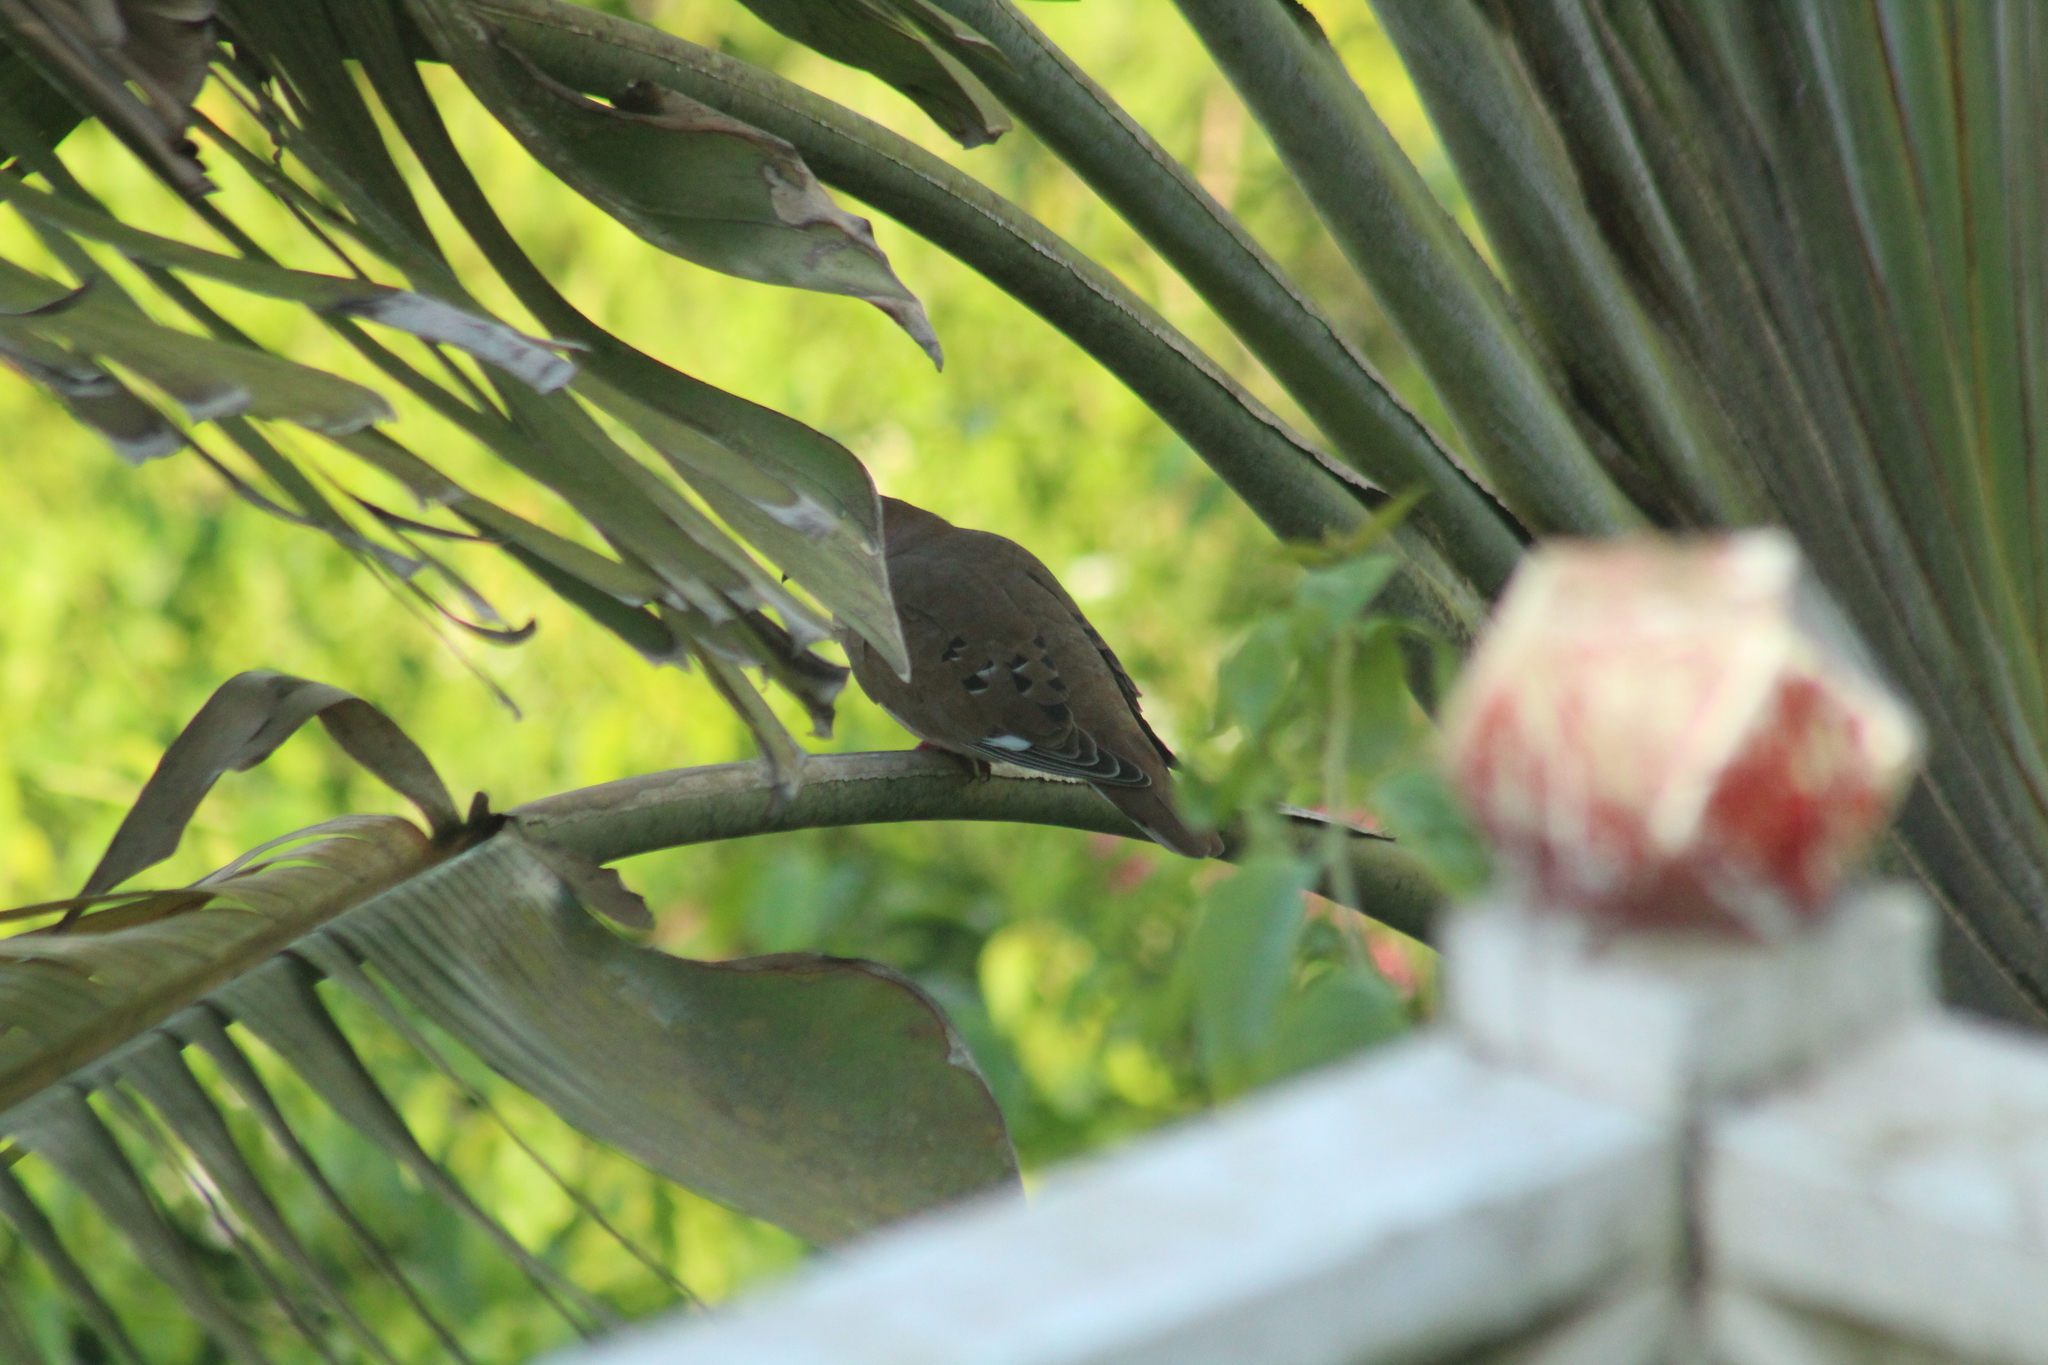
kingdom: Animalia
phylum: Chordata
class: Aves
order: Columbiformes
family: Columbidae
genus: Zenaida
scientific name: Zenaida aurita
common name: Zenaida dove
